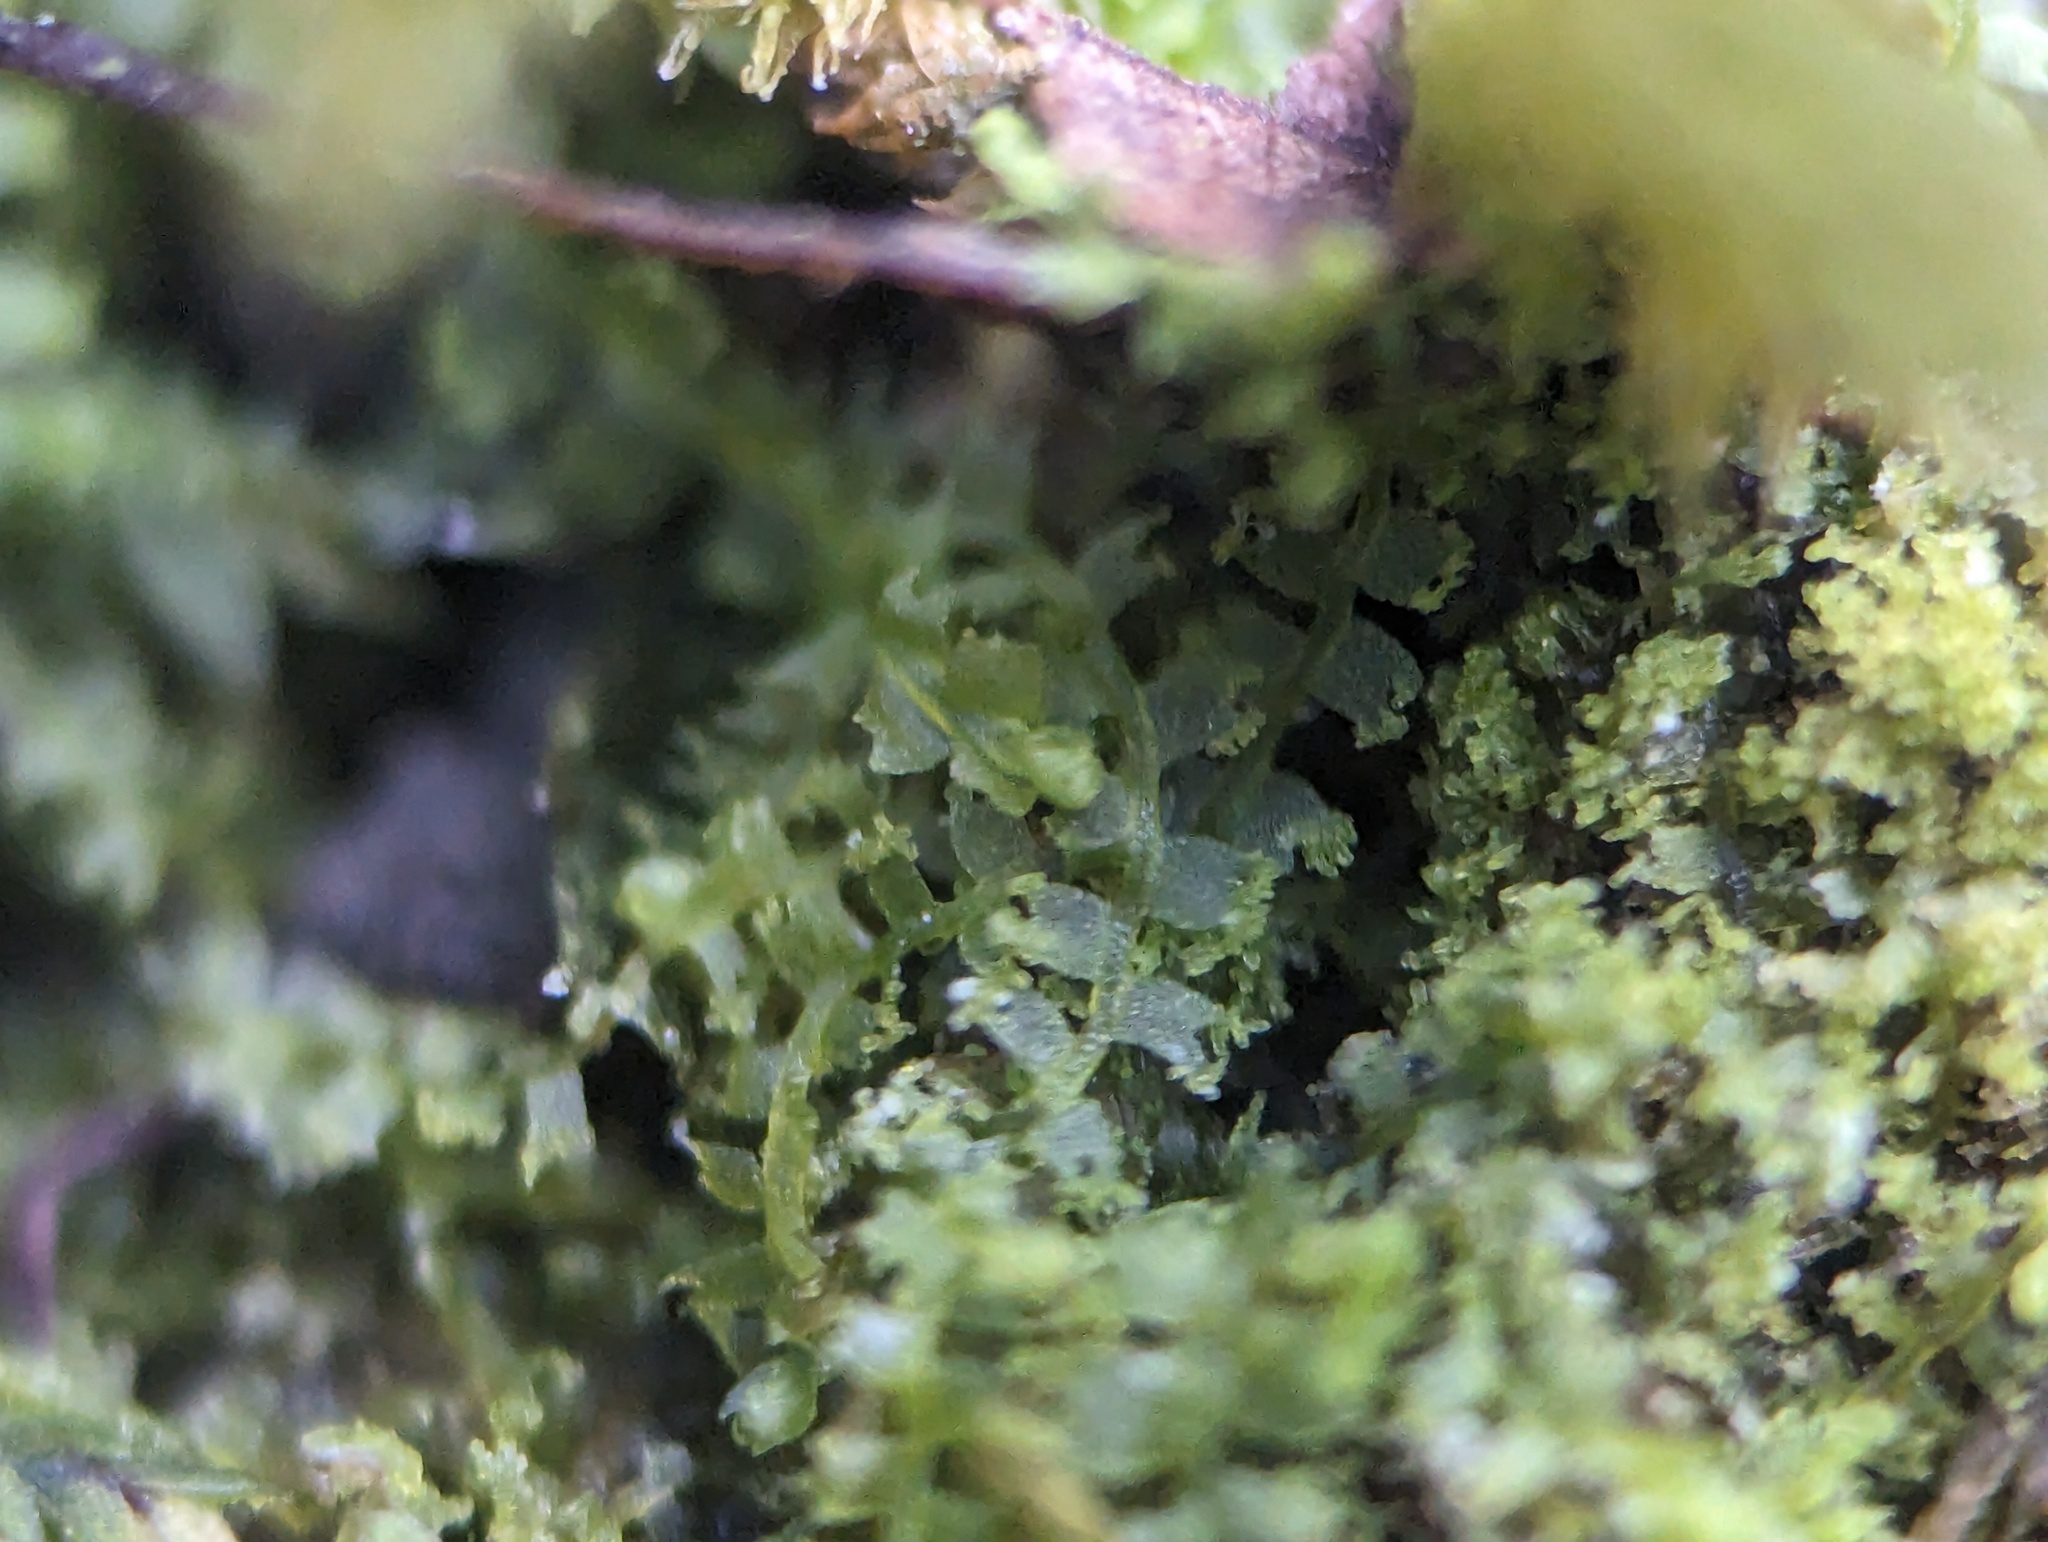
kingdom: Plantae
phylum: Marchantiophyta
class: Jungermanniopsida
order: Jungermanniales
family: Lophocoleaceae
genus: Lophocolea
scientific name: Lophocolea minor
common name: Lesser crestwort
